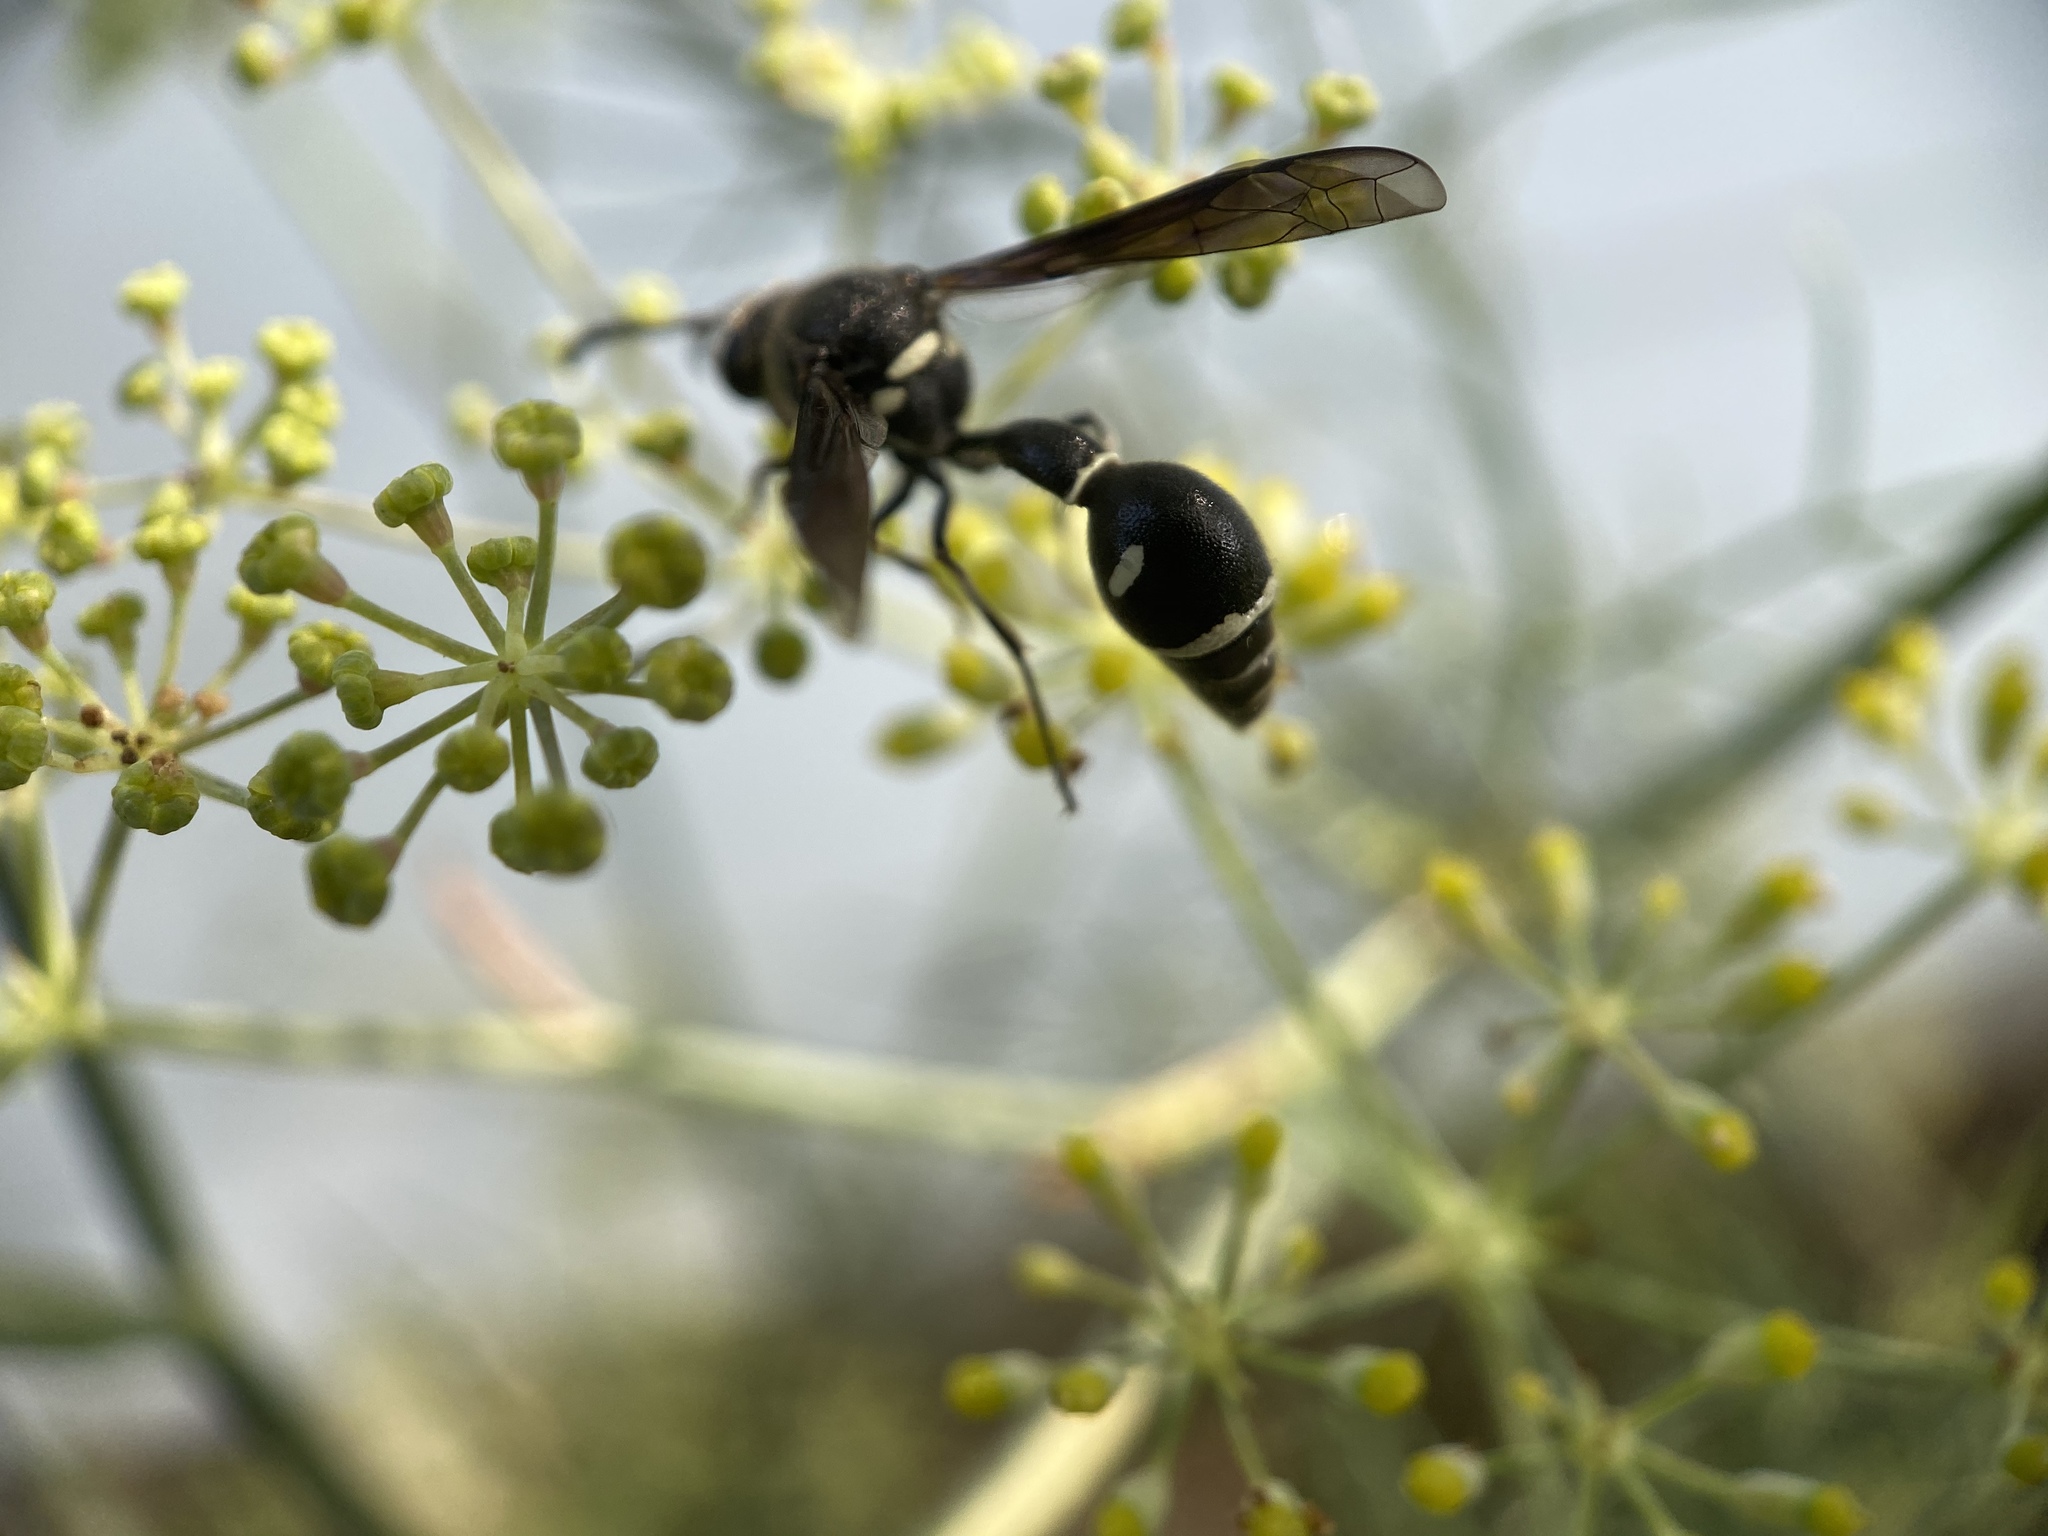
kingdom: Animalia
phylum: Arthropoda
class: Insecta
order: Hymenoptera
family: Vespidae
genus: Eumenes
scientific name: Eumenes fraternus
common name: Fraternal potter wasp
